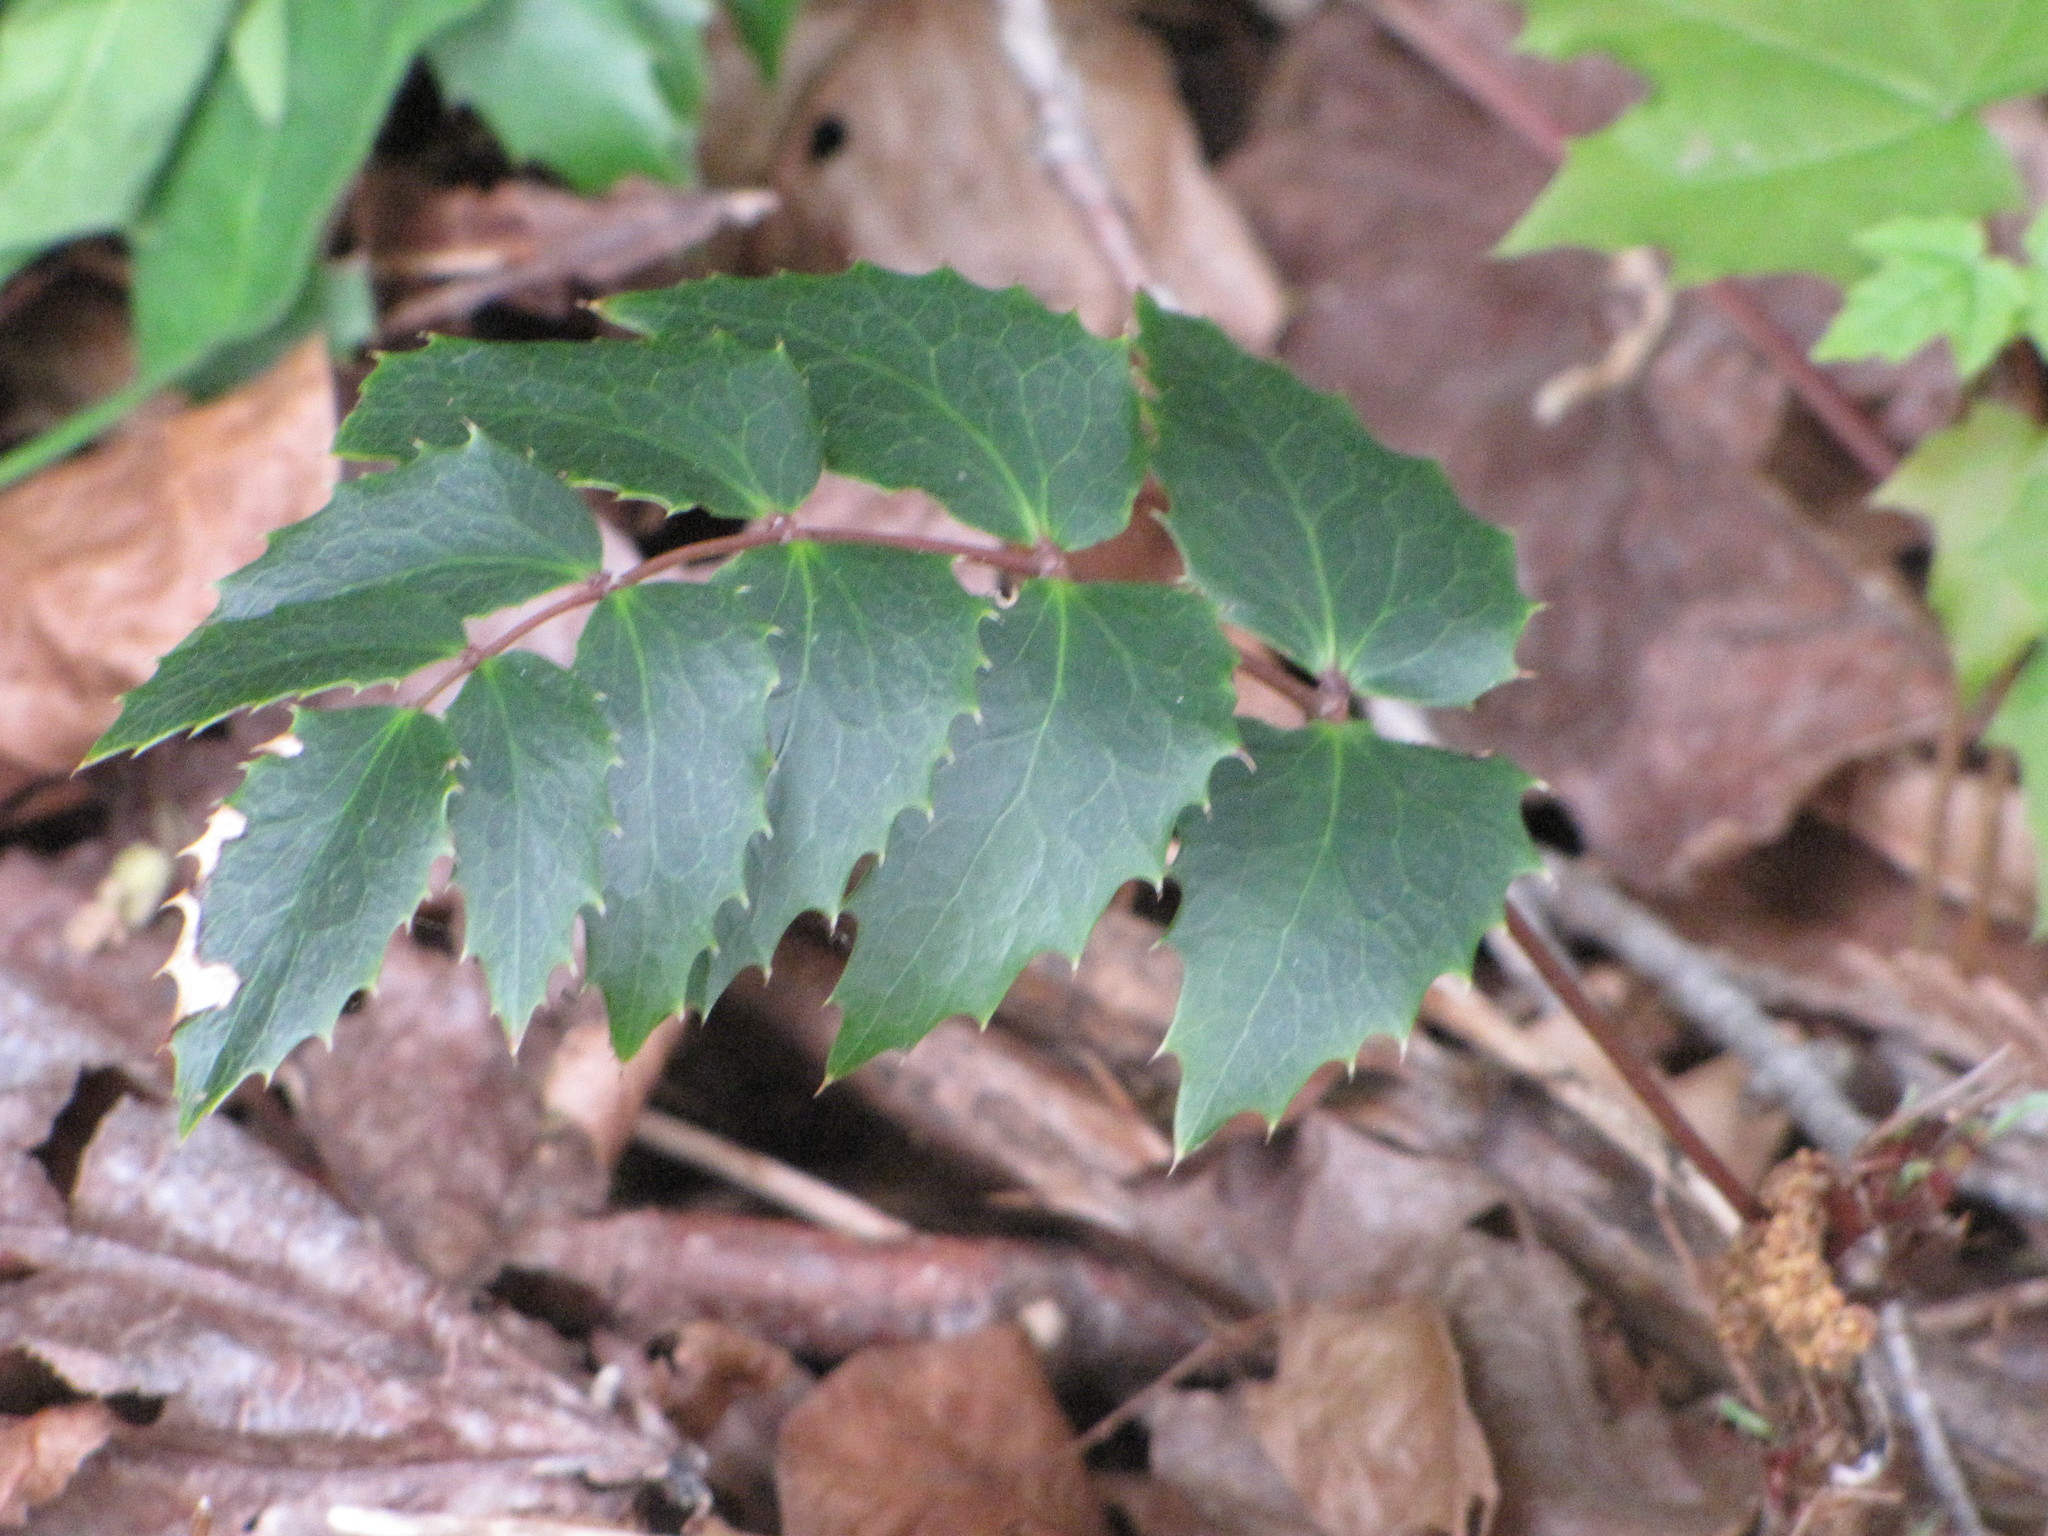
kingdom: Plantae
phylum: Tracheophyta
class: Magnoliopsida
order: Ranunculales
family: Berberidaceae
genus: Mahonia
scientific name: Mahonia nervosa
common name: Cascade oregon-grape
